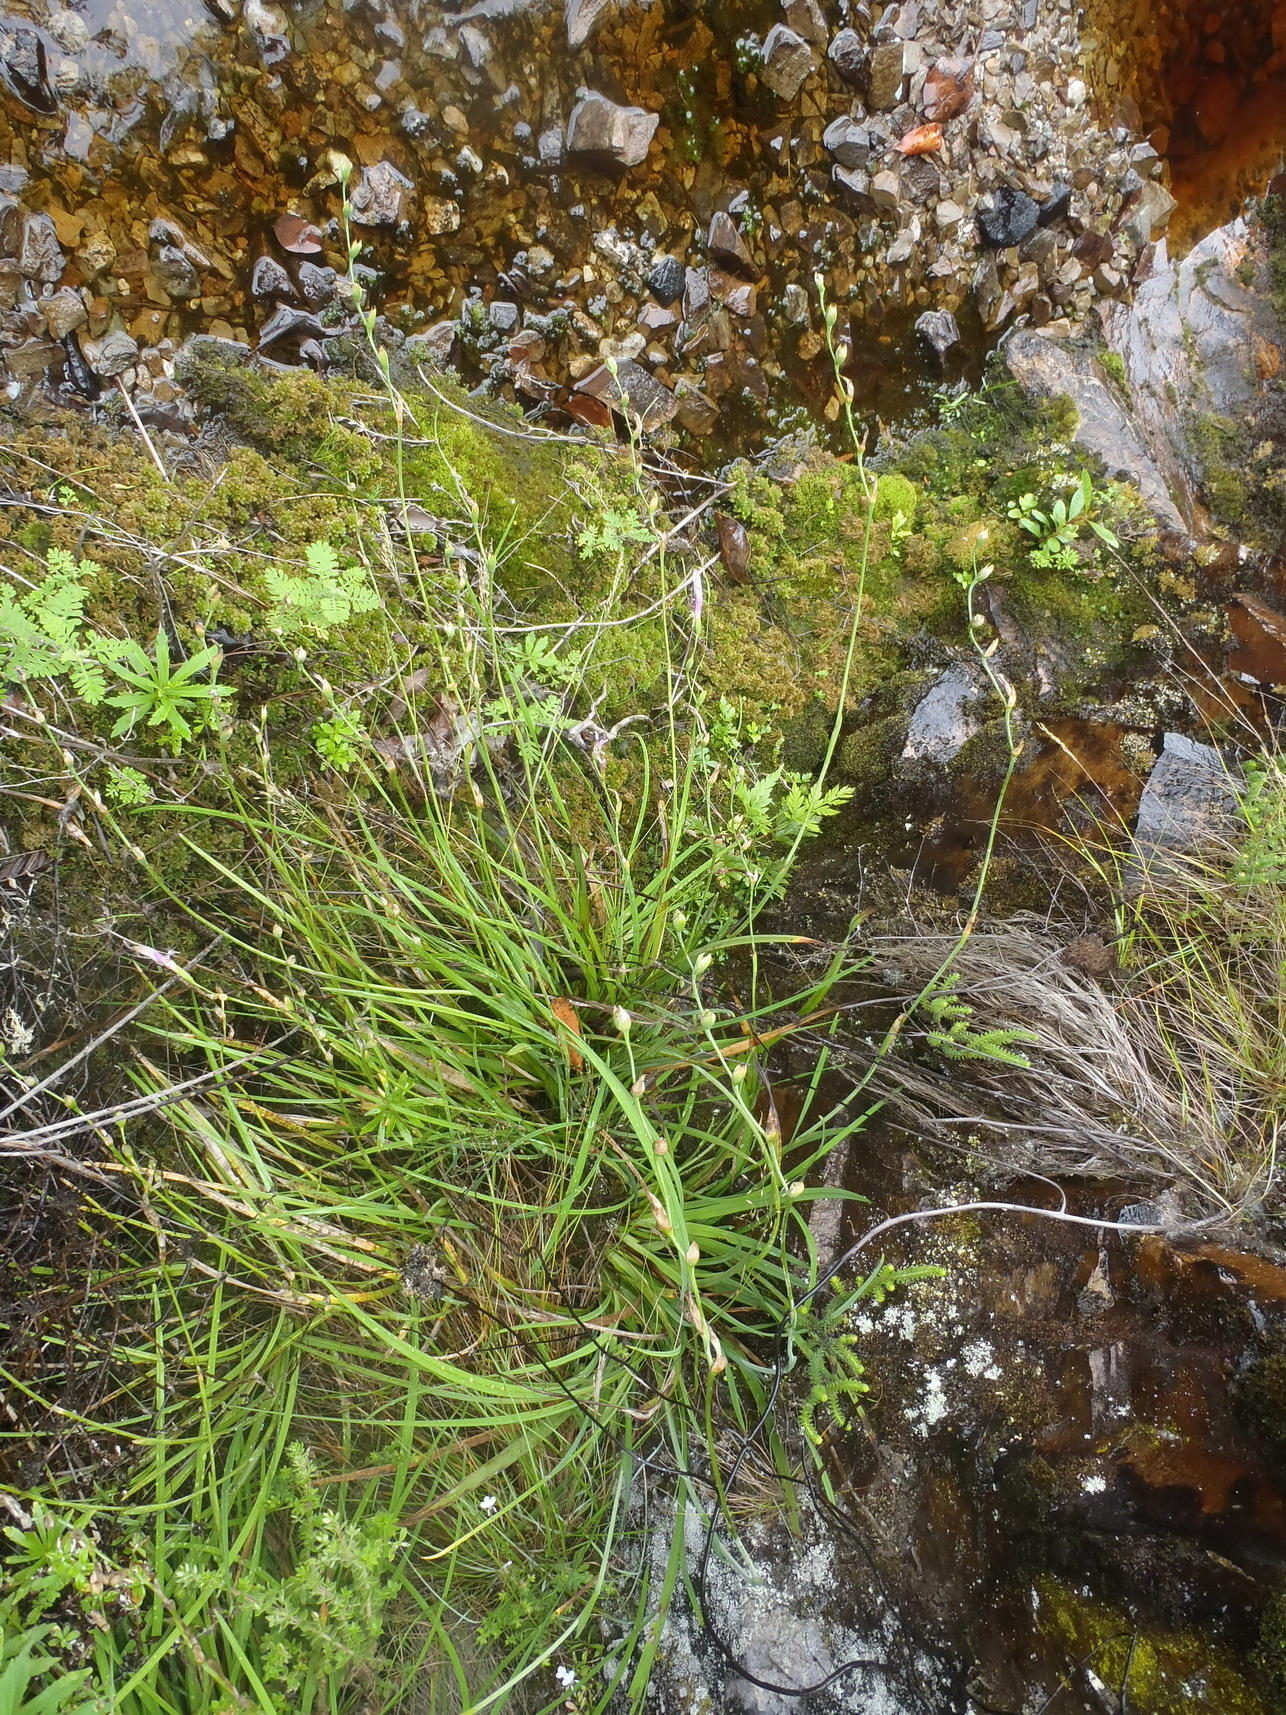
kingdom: Plantae
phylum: Tracheophyta
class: Liliopsida
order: Asparagales
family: Iridaceae
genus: Geissorhiza
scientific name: Geissorhiza outeniquensis
